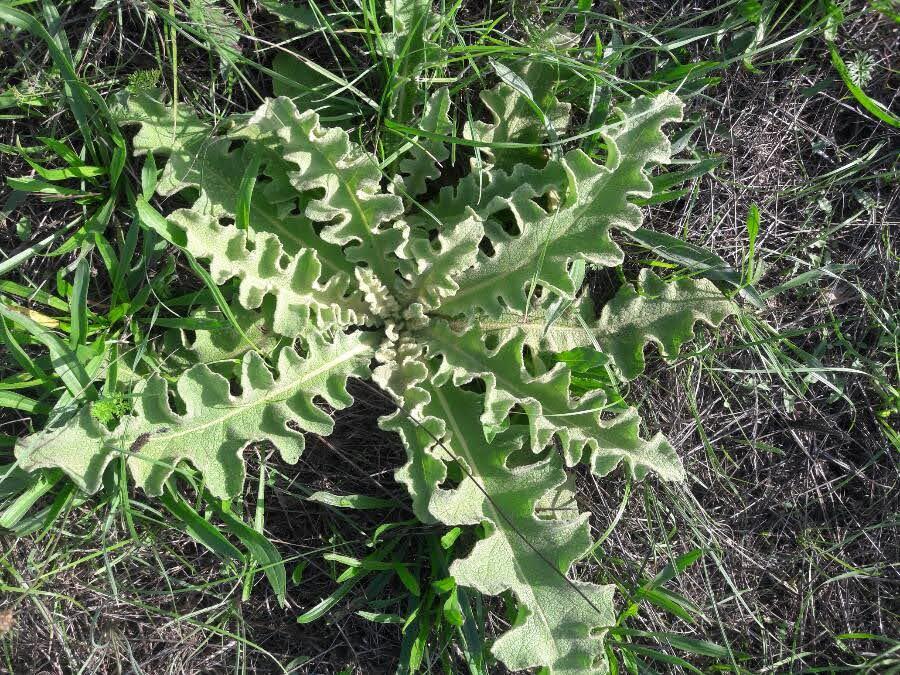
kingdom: Plantae
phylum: Tracheophyta
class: Magnoliopsida
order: Lamiales
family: Scrophulariaceae
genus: Verbascum
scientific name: Verbascum sinuatum
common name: Wavyleaf mullein
